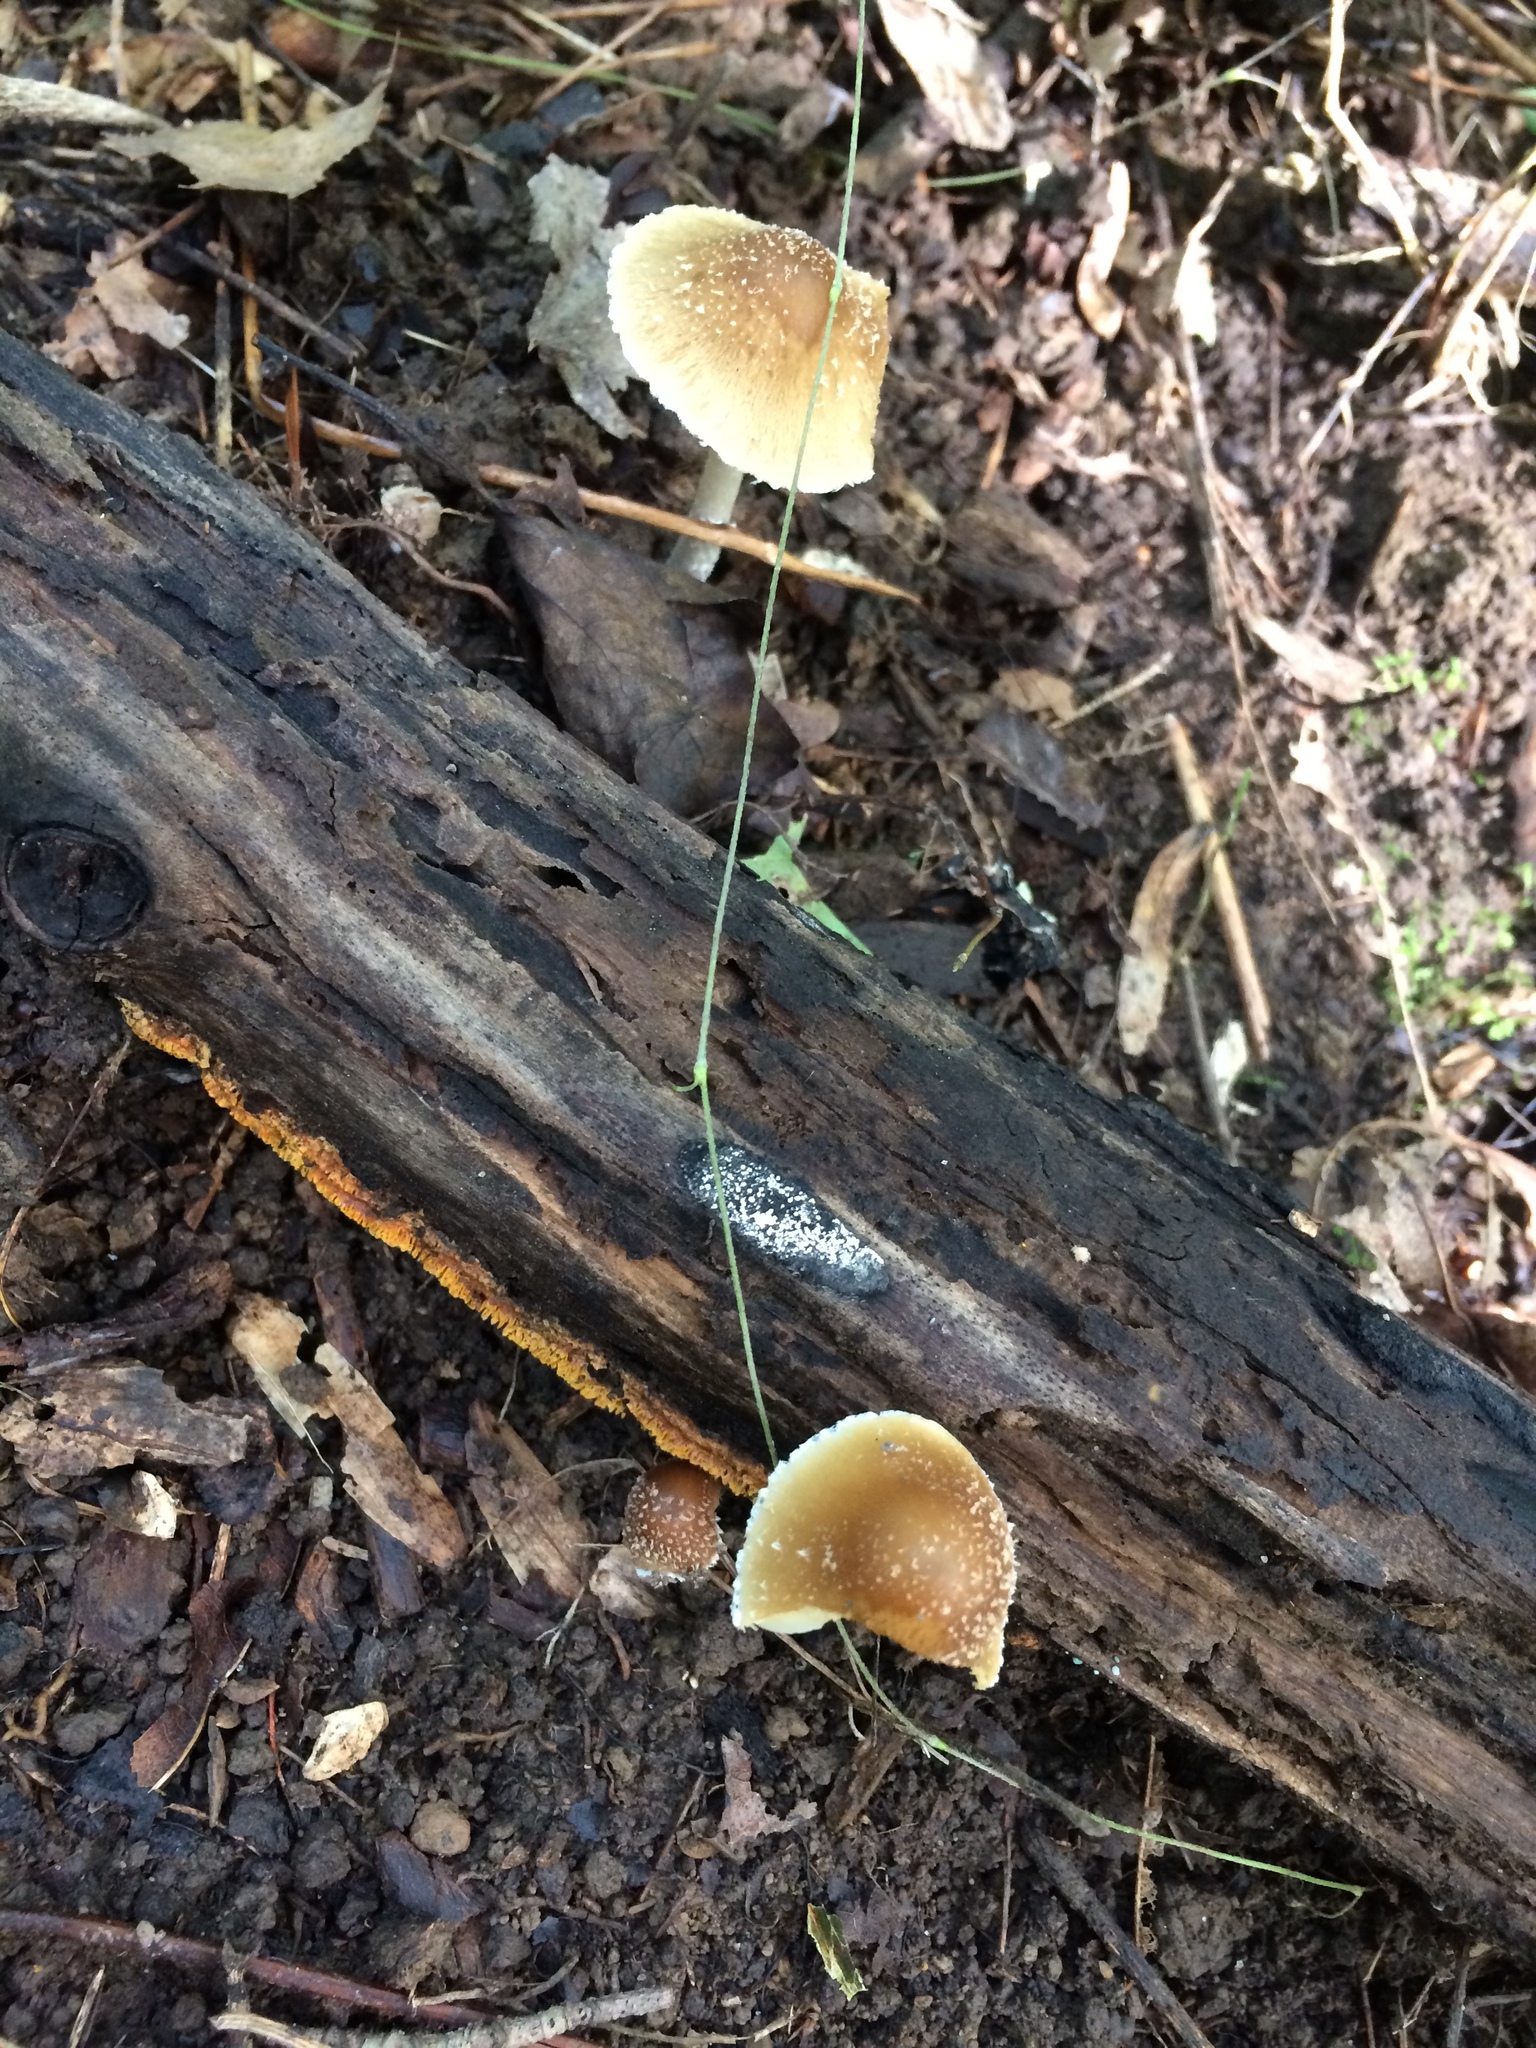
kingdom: Fungi
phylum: Basidiomycota
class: Agaricomycetes
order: Agaricales
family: Psathyrellaceae
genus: Candolleomyces
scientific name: Candolleomyces candolleanus
